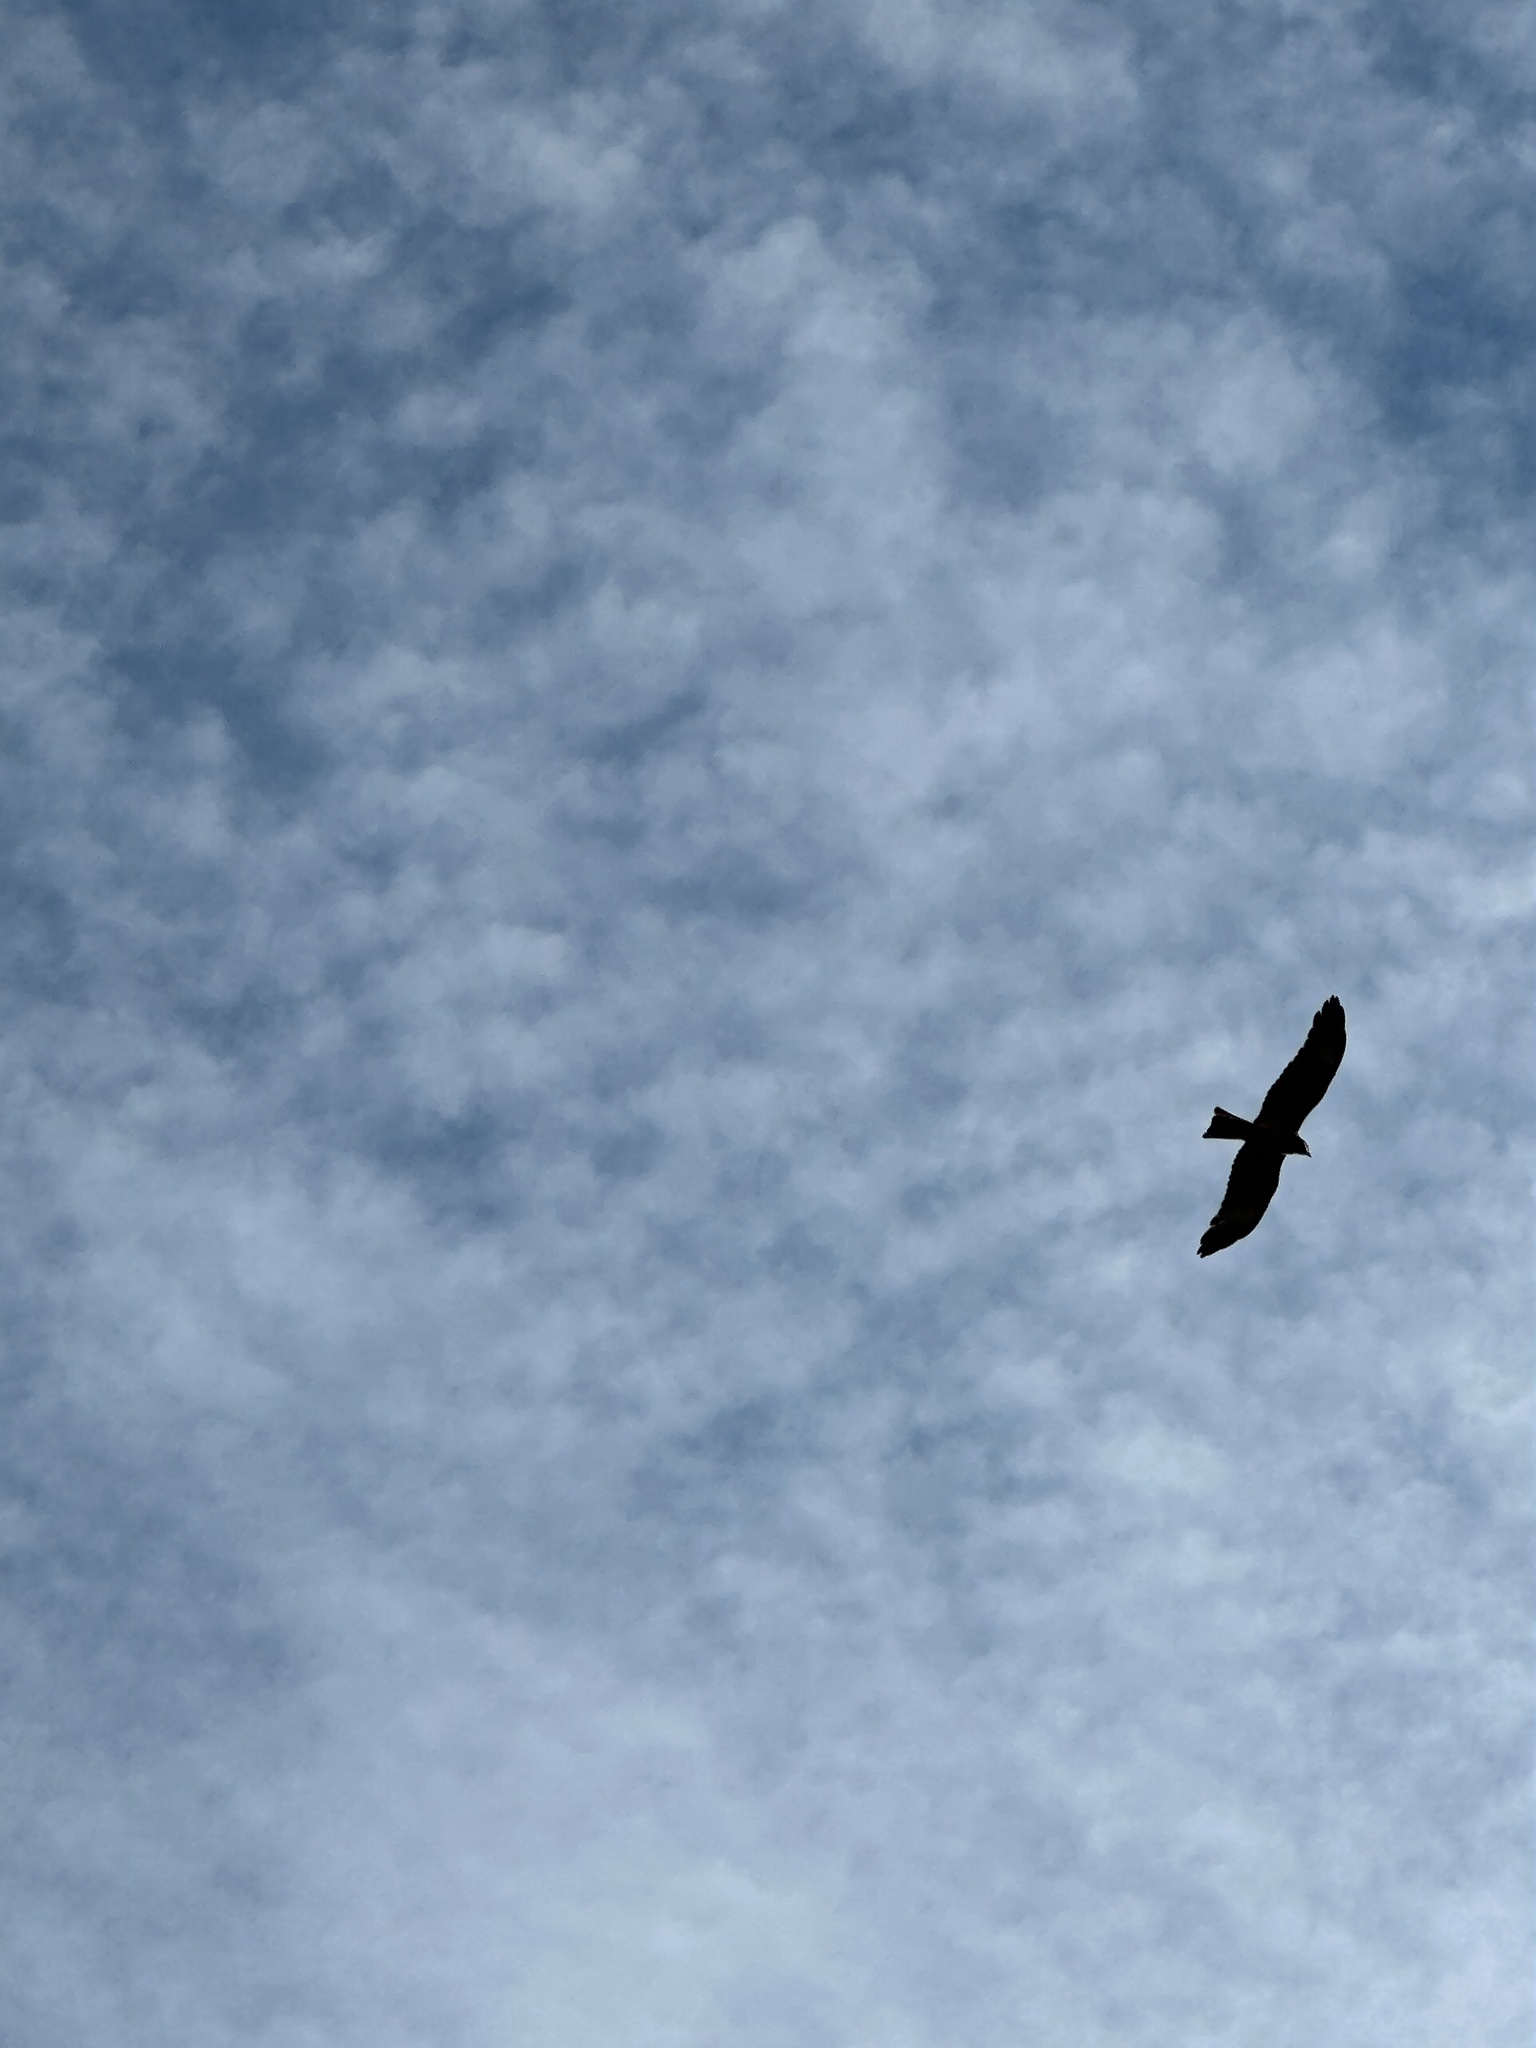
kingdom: Animalia
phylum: Chordata
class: Aves
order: Accipitriformes
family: Accipitridae
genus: Lophoictinia
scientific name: Lophoictinia isura
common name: Square-tailed kite
